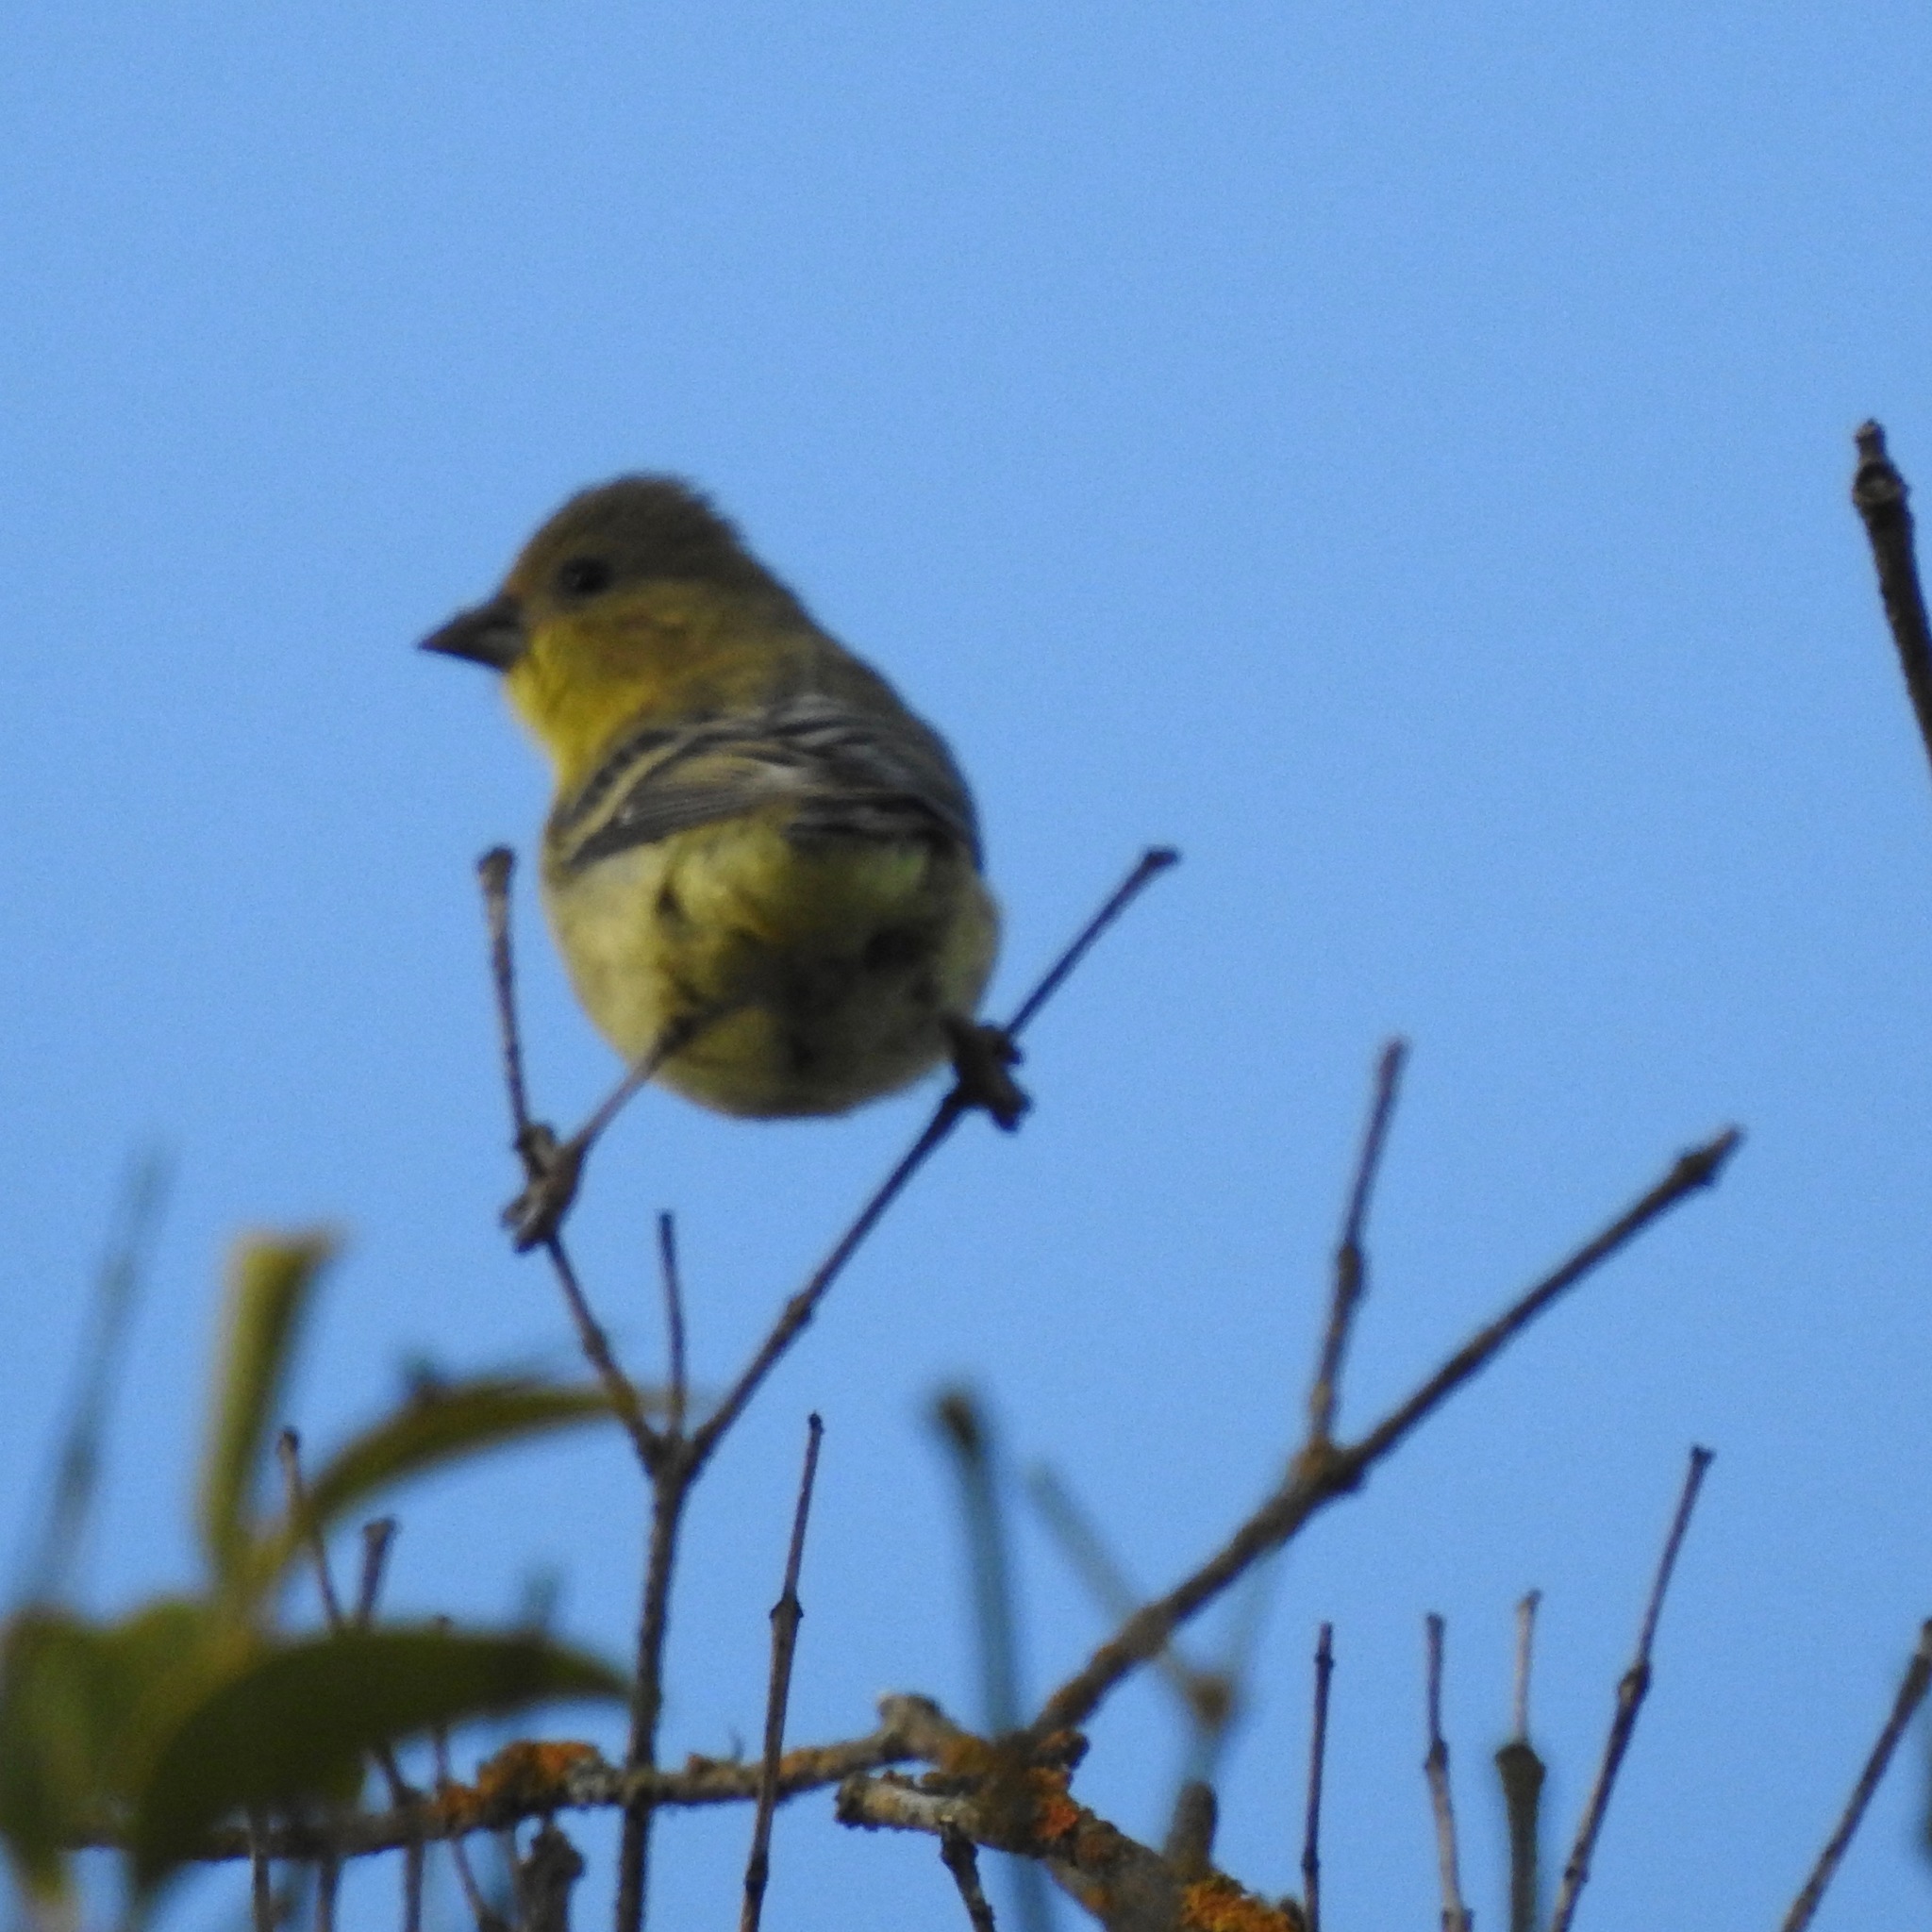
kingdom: Animalia
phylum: Chordata
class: Aves
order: Passeriformes
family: Fringillidae
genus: Spinus
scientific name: Spinus psaltria
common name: Lesser goldfinch
